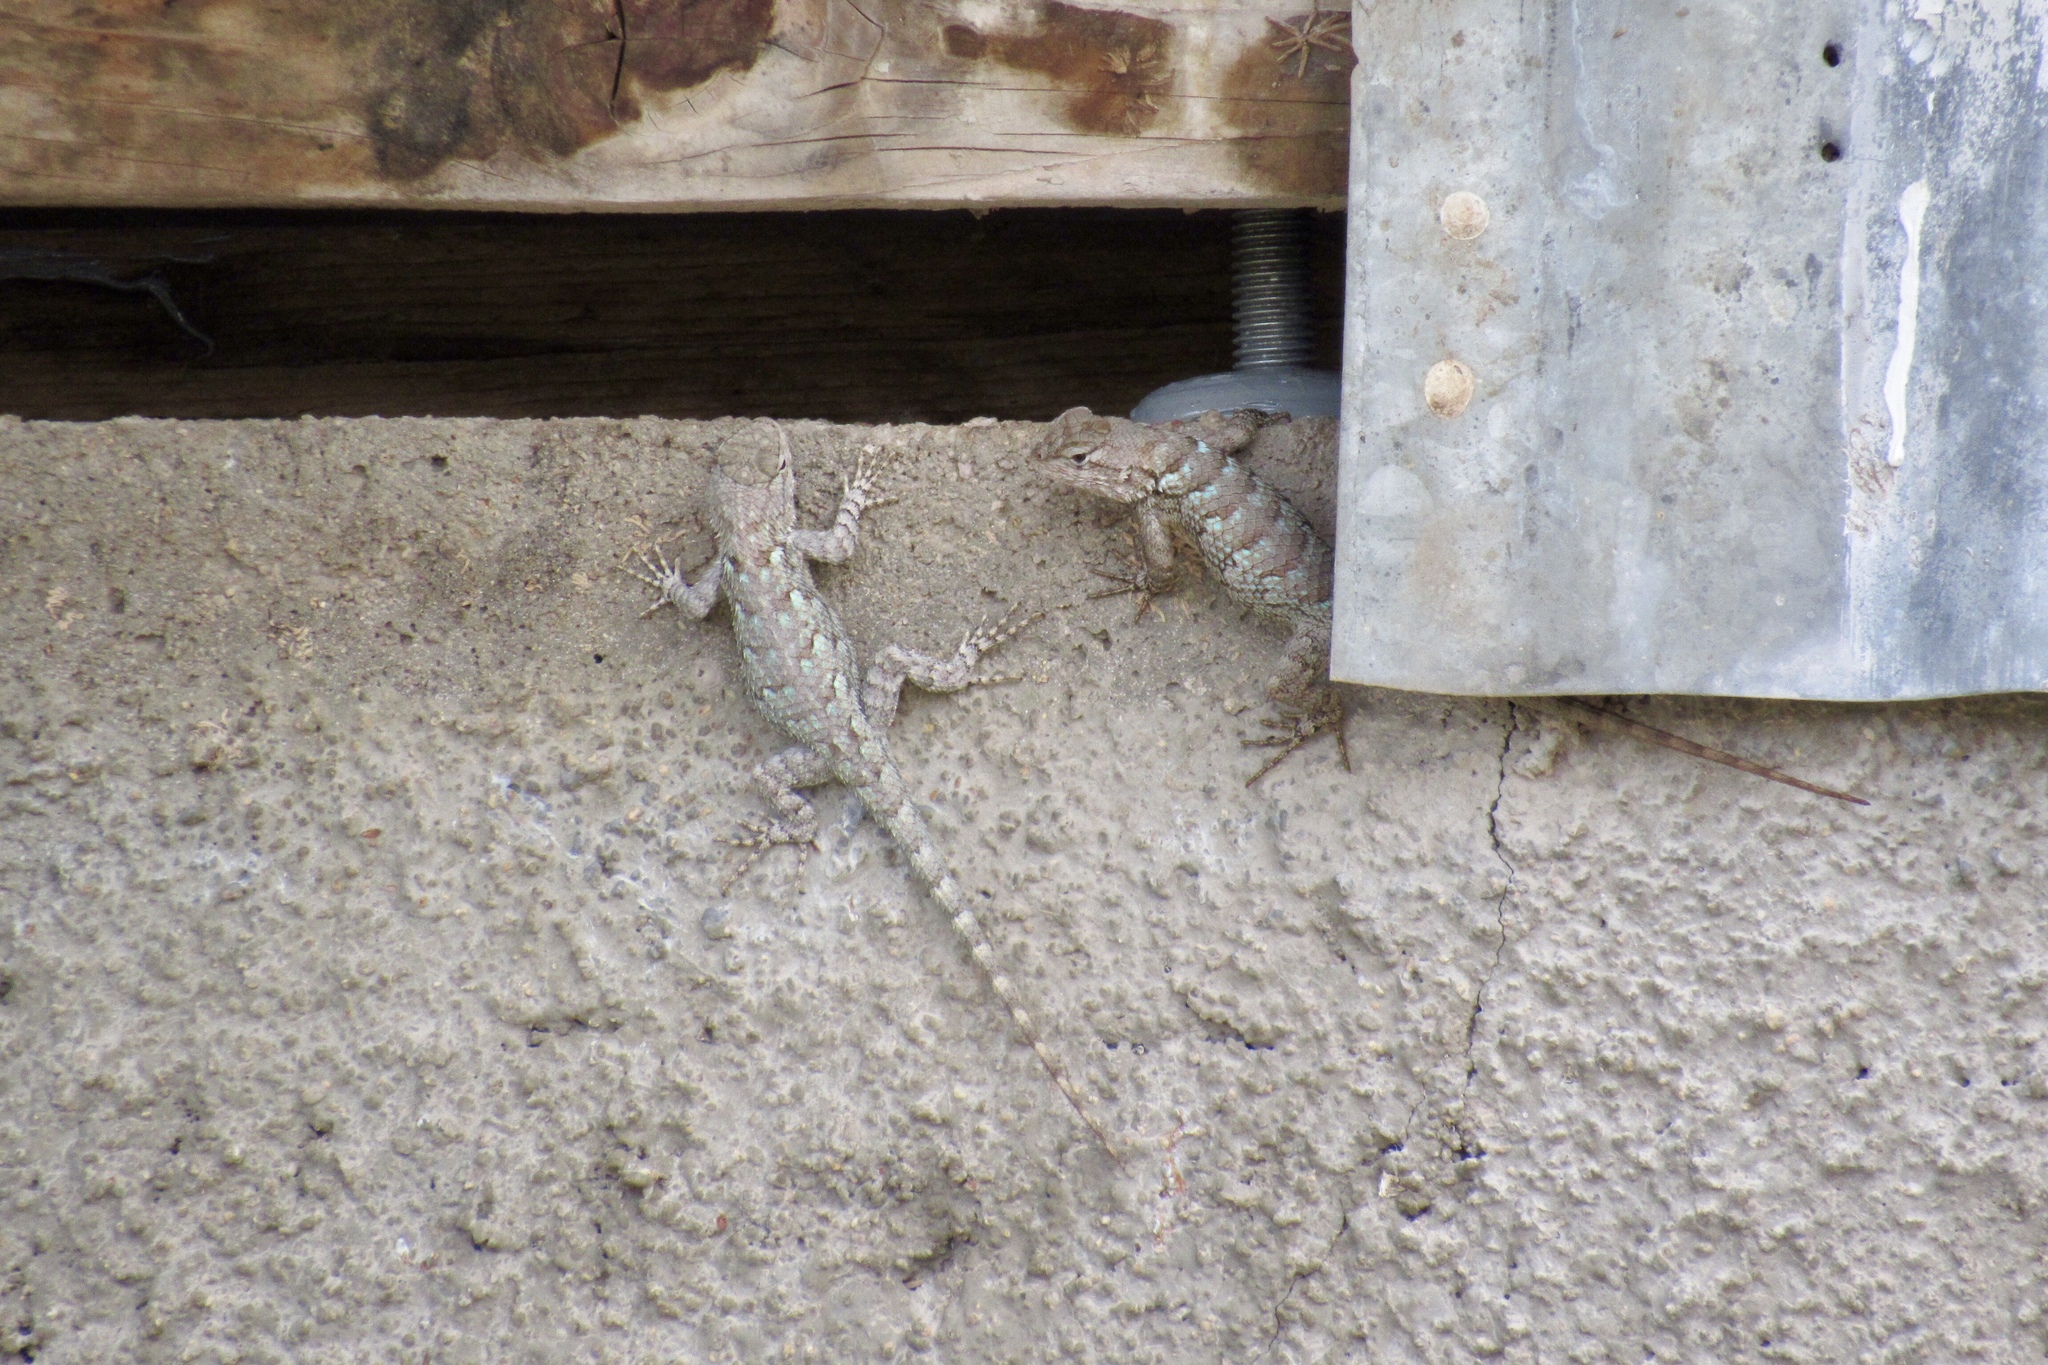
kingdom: Animalia
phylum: Chordata
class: Squamata
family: Phrynosomatidae
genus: Sceloporus
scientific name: Sceloporus clarkii
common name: Clark's spiny lizard
